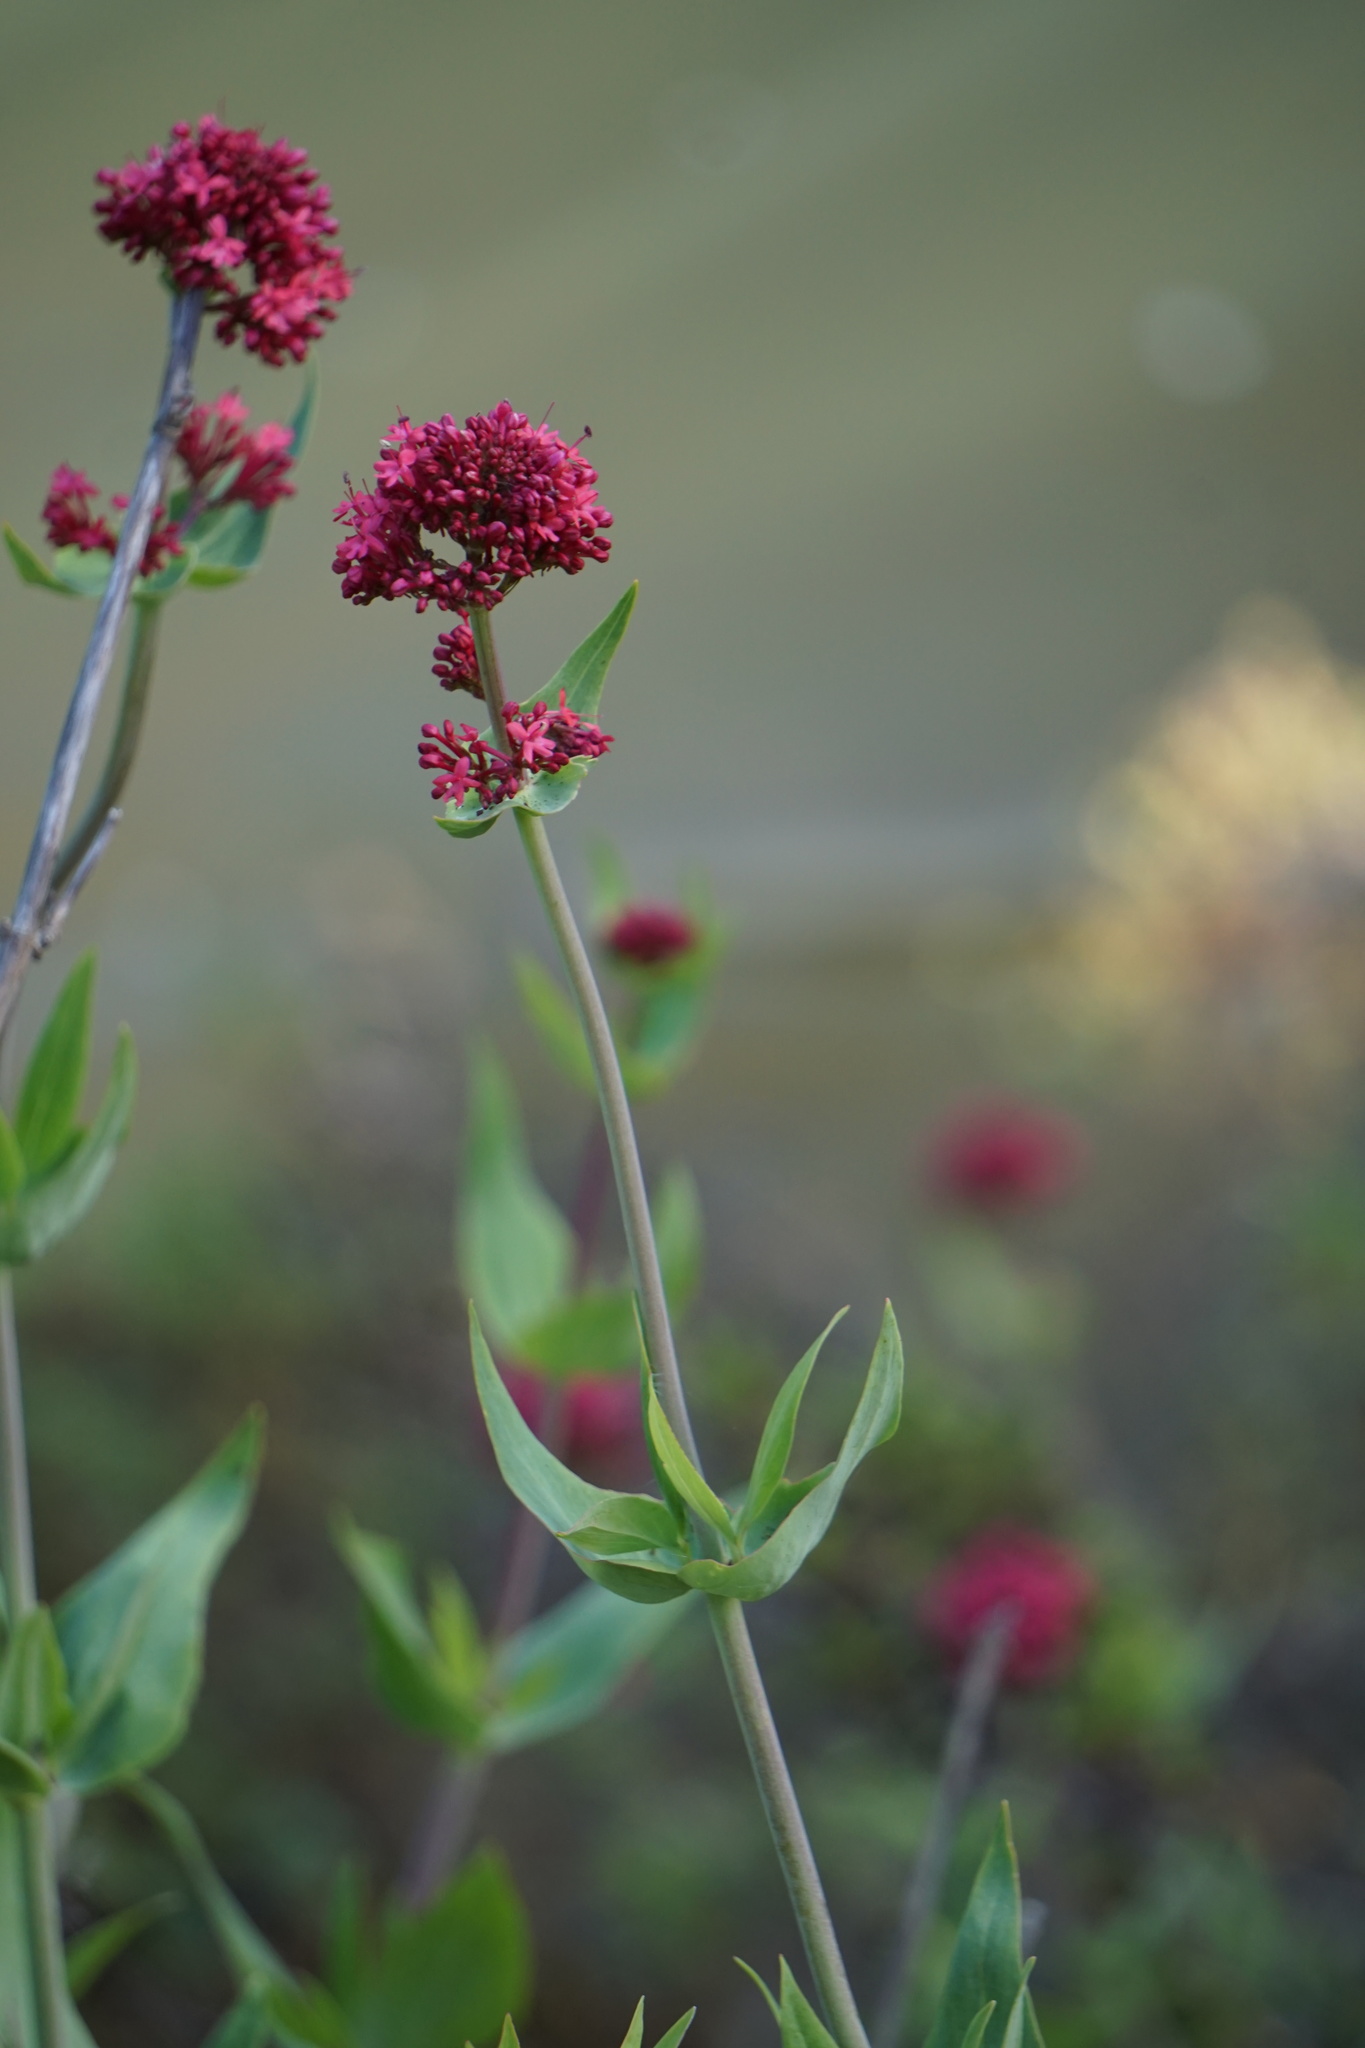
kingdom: Plantae
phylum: Tracheophyta
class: Magnoliopsida
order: Dipsacales
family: Caprifoliaceae
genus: Centranthus
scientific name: Centranthus ruber
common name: Red valerian
